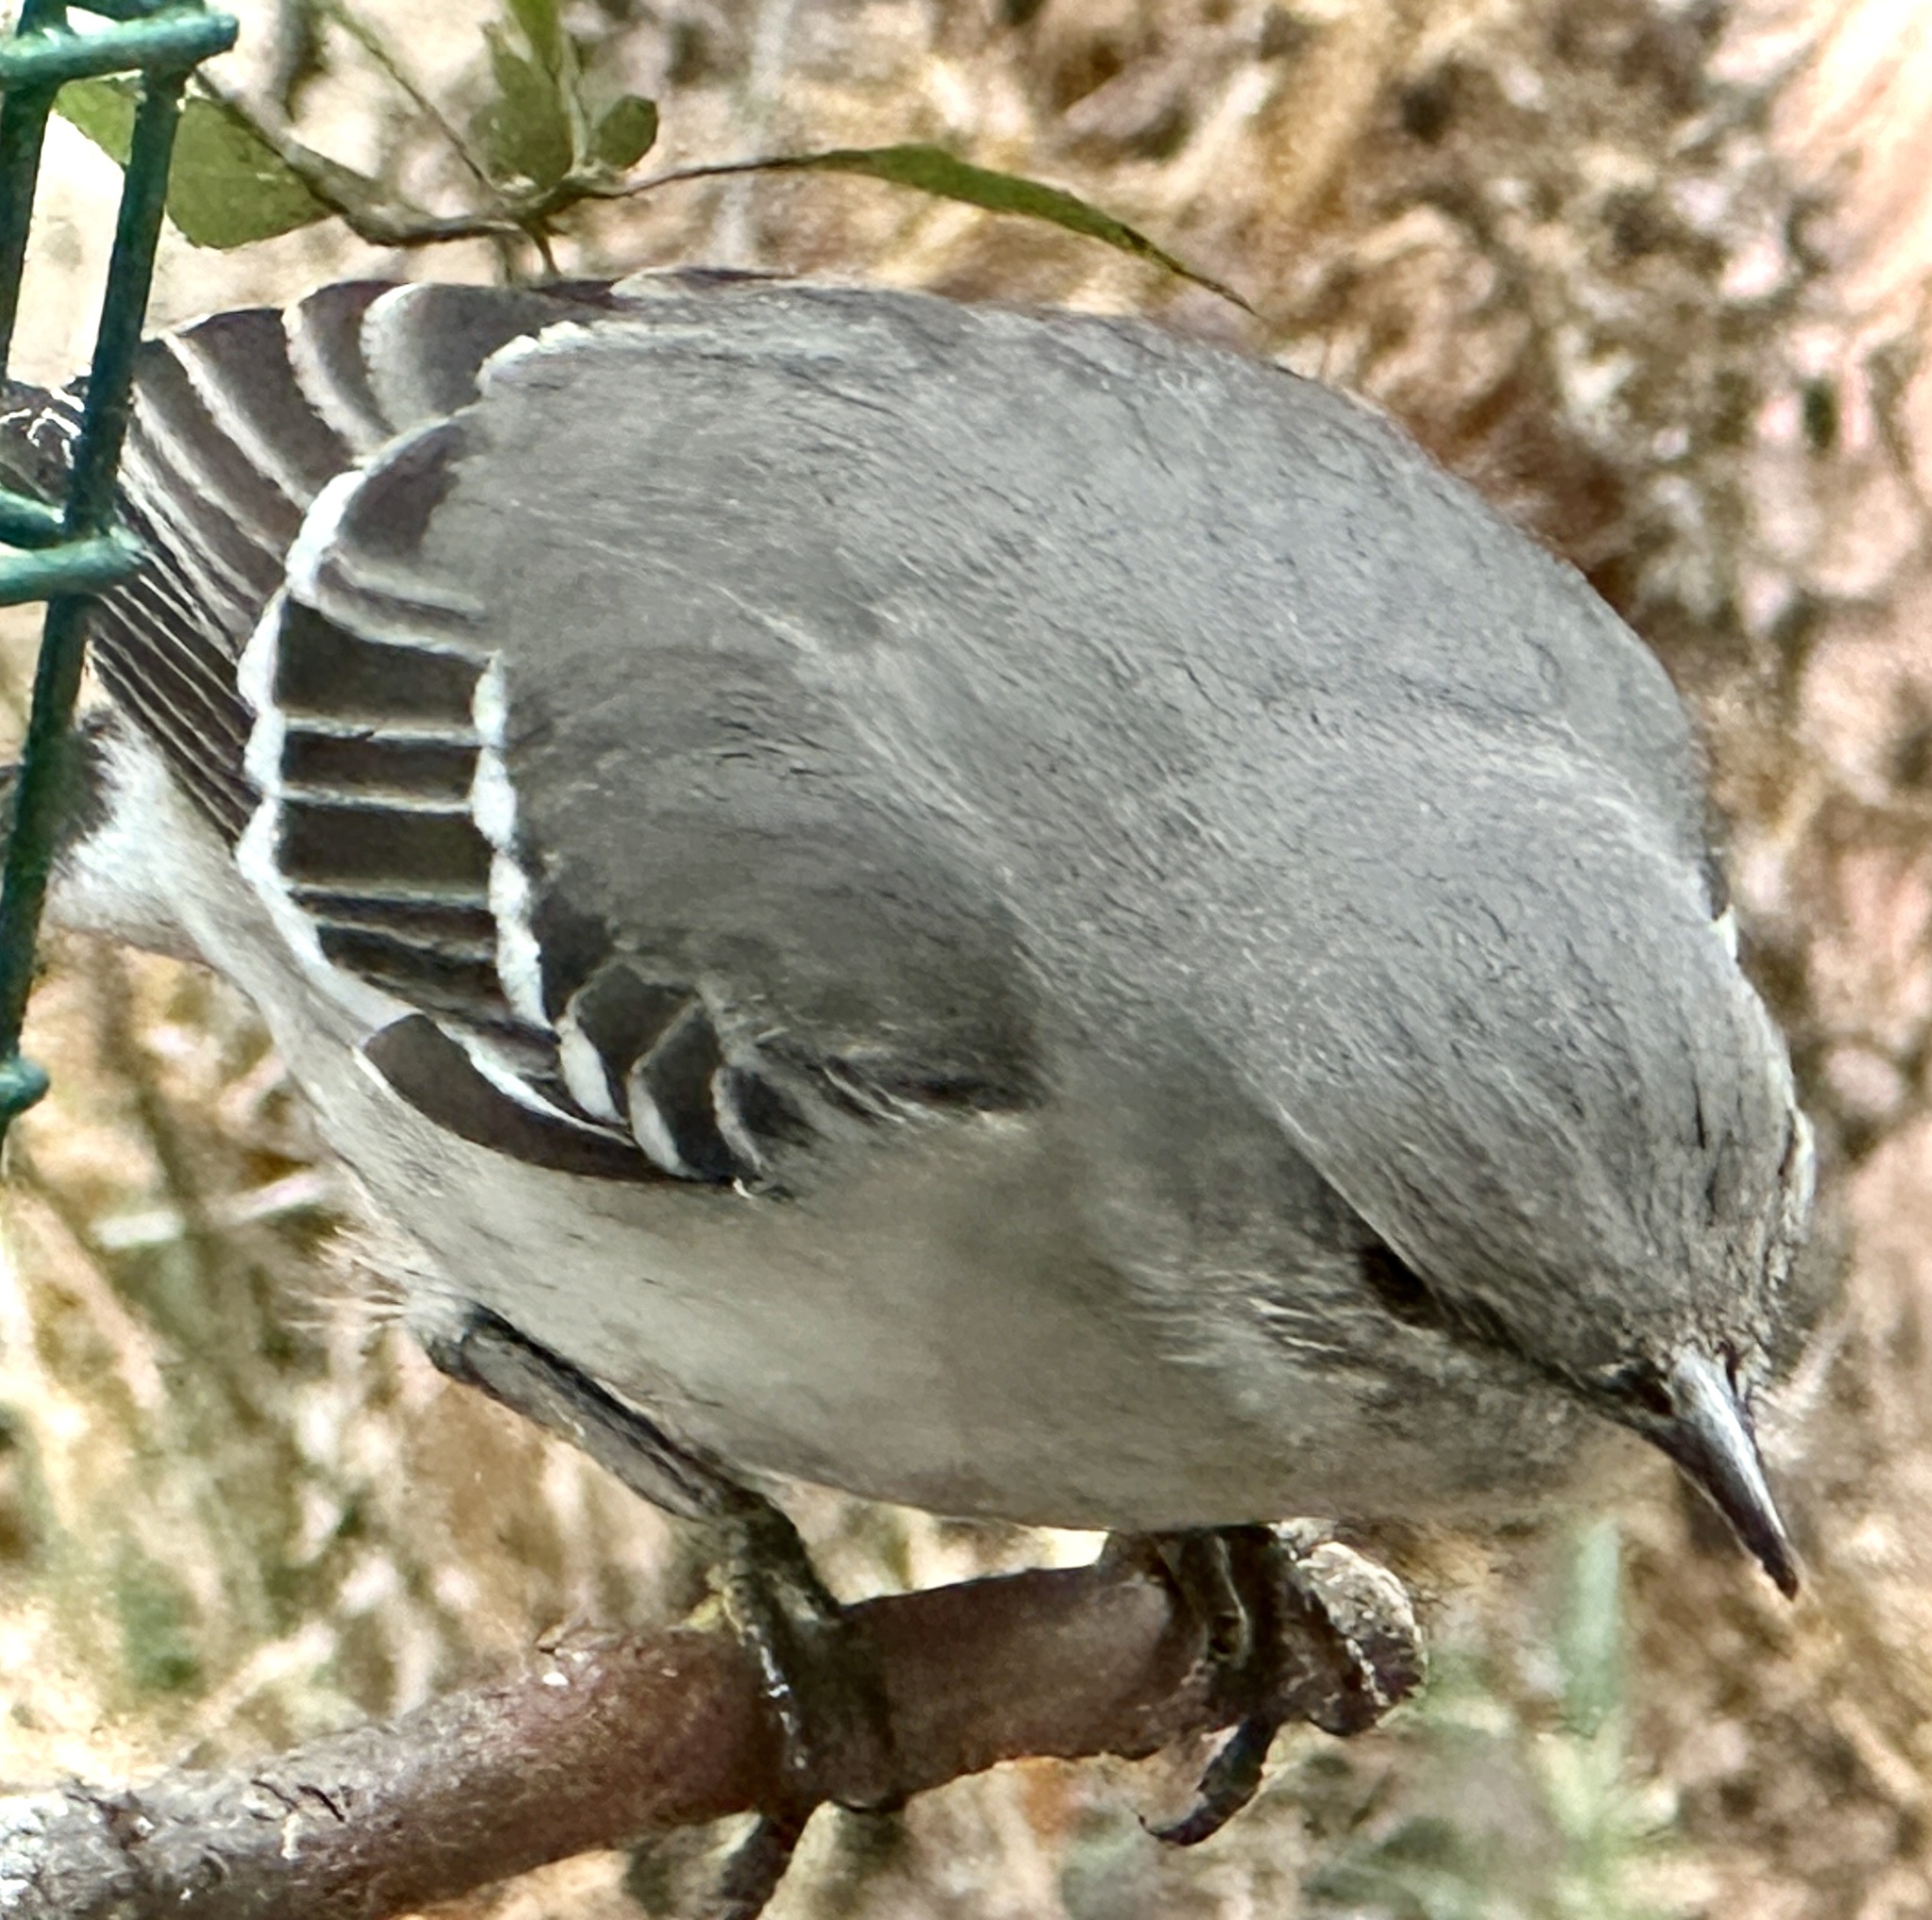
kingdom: Animalia
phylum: Chordata
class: Aves
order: Passeriformes
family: Mimidae
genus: Mimus
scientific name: Mimus polyglottos
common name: Northern mockingbird
